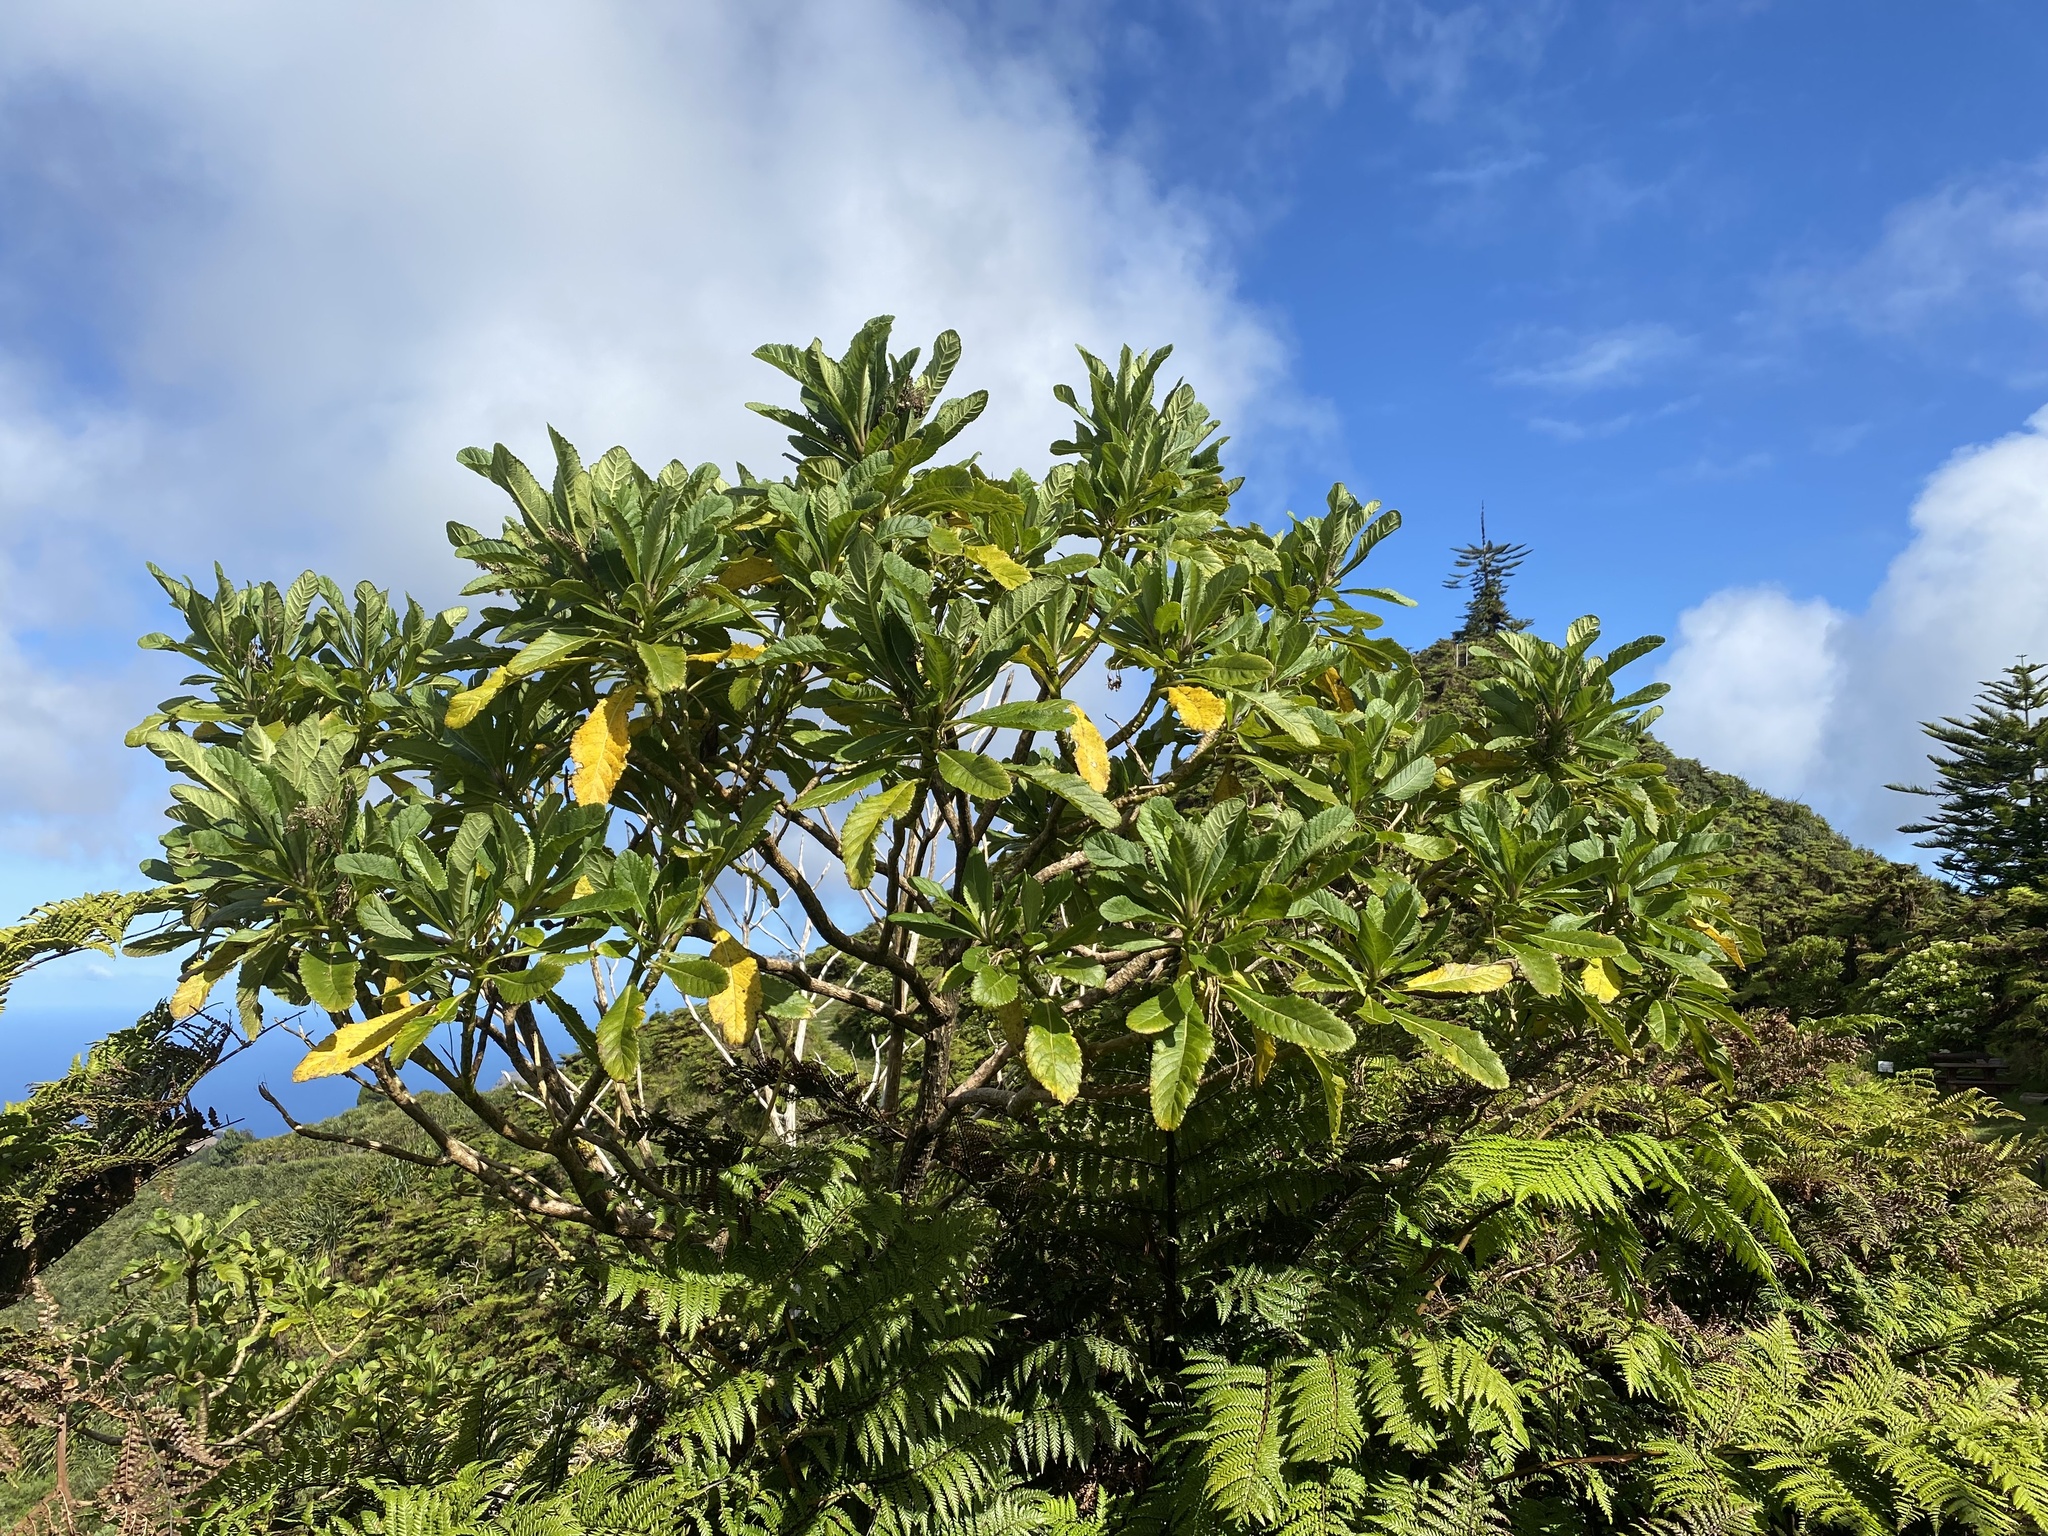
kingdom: Plantae
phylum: Tracheophyta
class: Magnoliopsida
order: Asterales
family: Asteraceae
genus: Pladaroxylon
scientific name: Pladaroxylon leucadendron
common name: He cabbage tree
